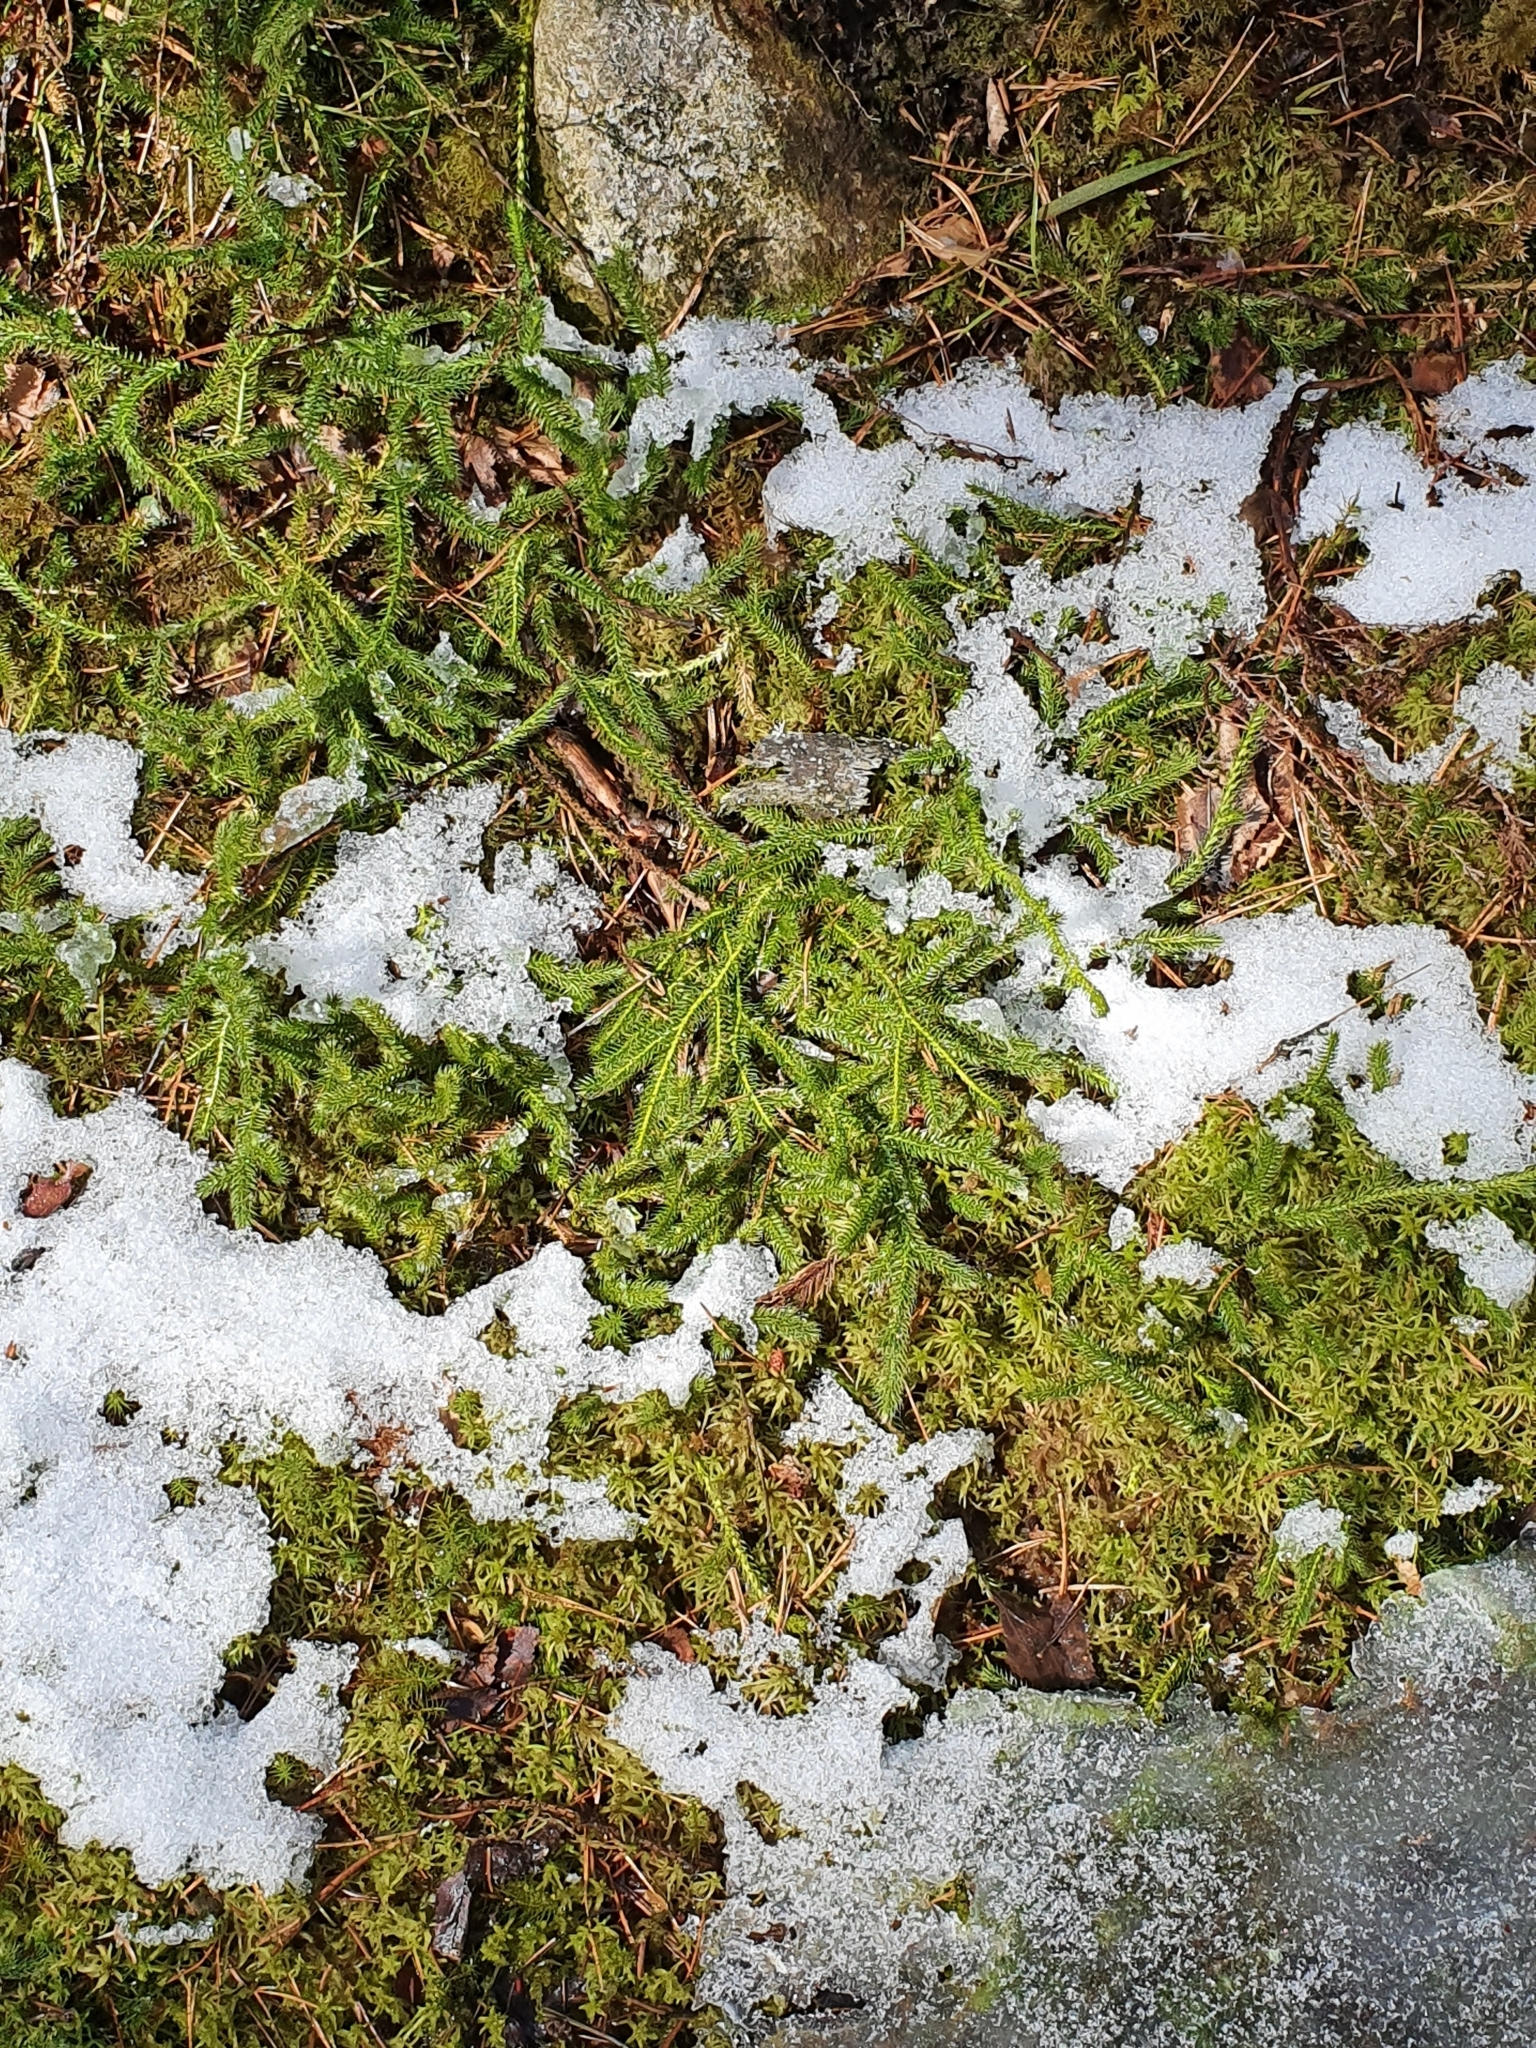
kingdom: Plantae
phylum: Tracheophyta
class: Lycopodiopsida
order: Lycopodiales
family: Lycopodiaceae
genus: Lycopodium
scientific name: Lycopodium clavatum
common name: Stag's-horn clubmoss
